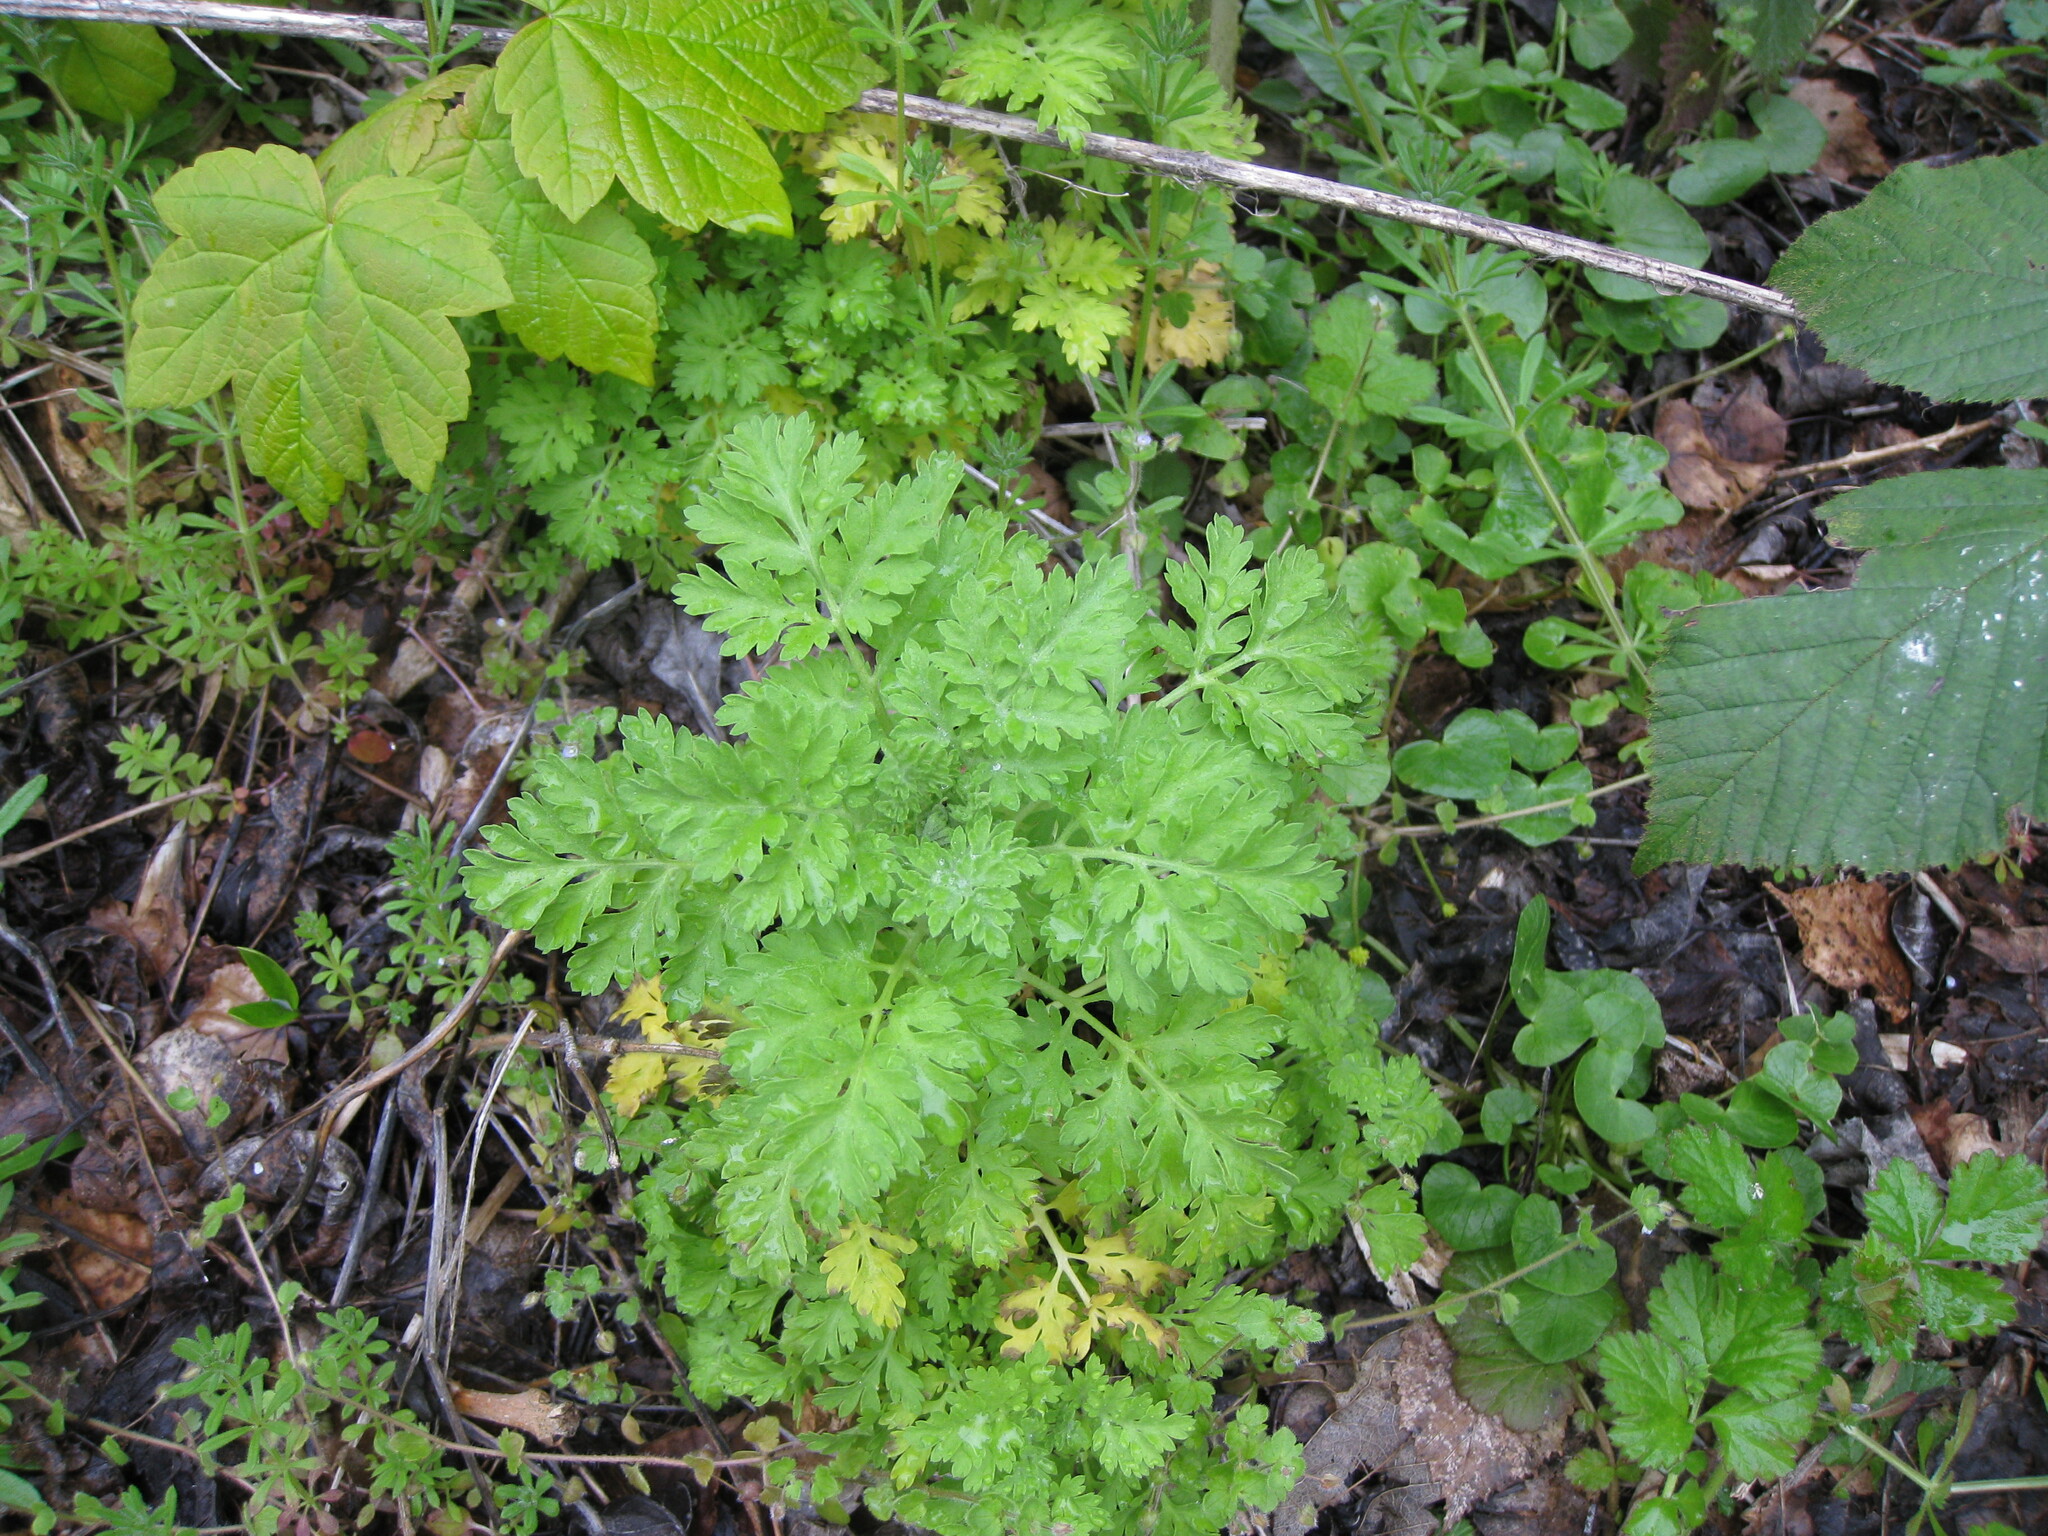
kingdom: Plantae
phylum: Tracheophyta
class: Magnoliopsida
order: Asterales
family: Asteraceae
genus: Tanacetum
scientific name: Tanacetum parthenium
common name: Feverfew
